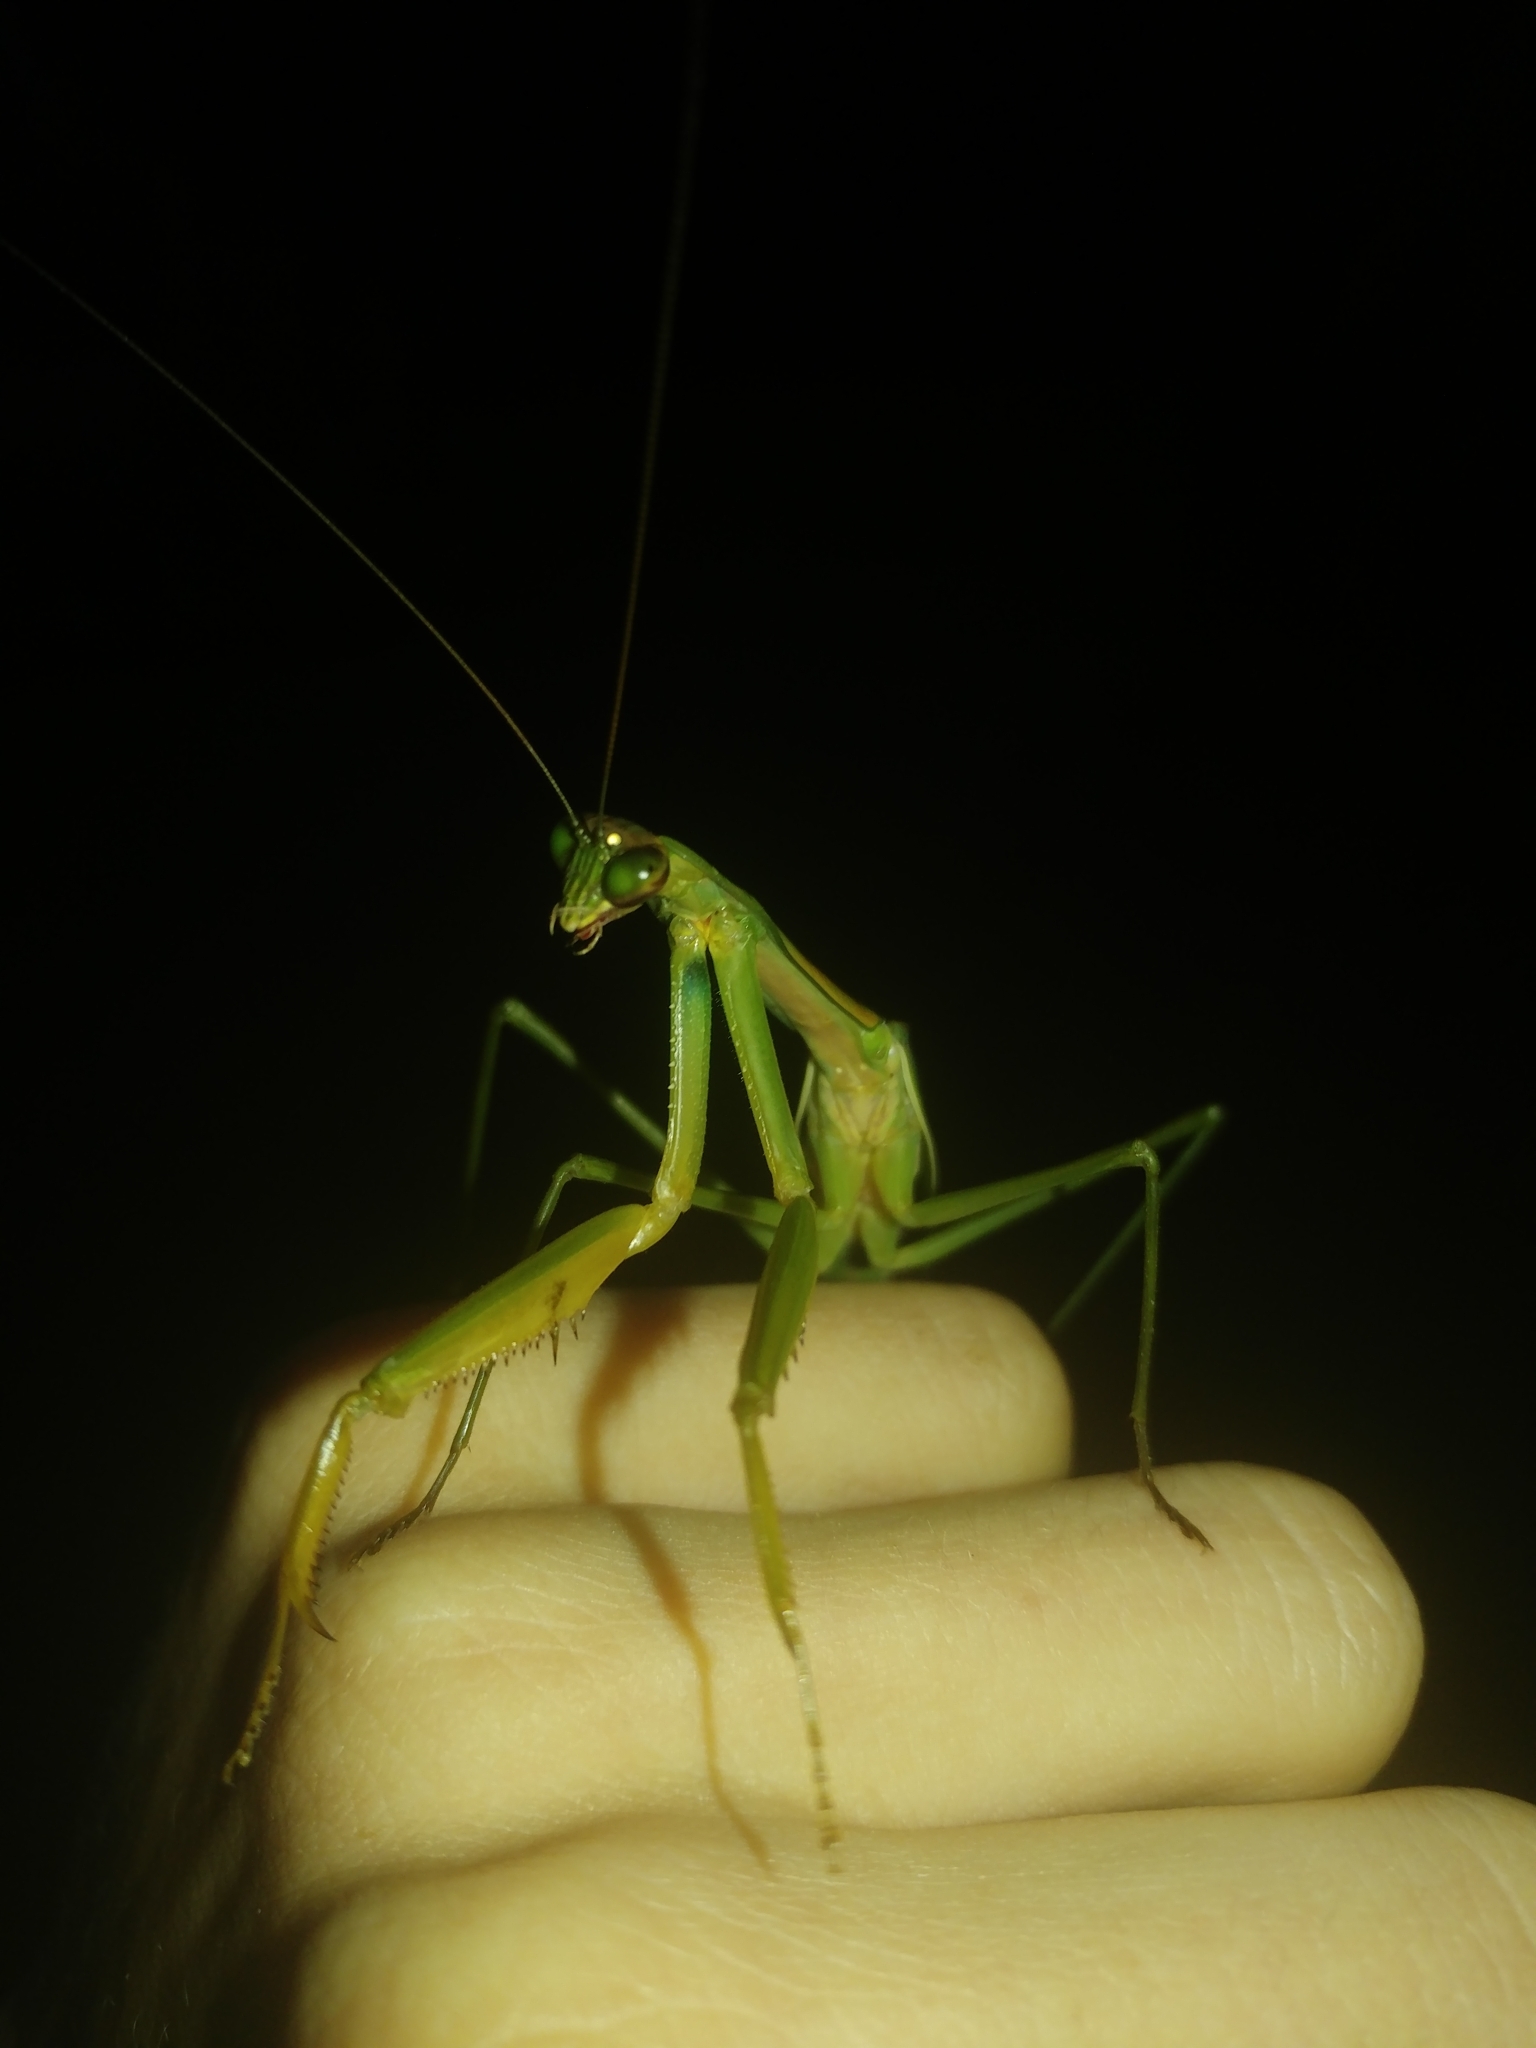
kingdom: Animalia
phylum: Arthropoda
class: Insecta
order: Mantodea
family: Mantidae
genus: Tenodera
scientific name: Tenodera sinensis
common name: Chinese mantis
